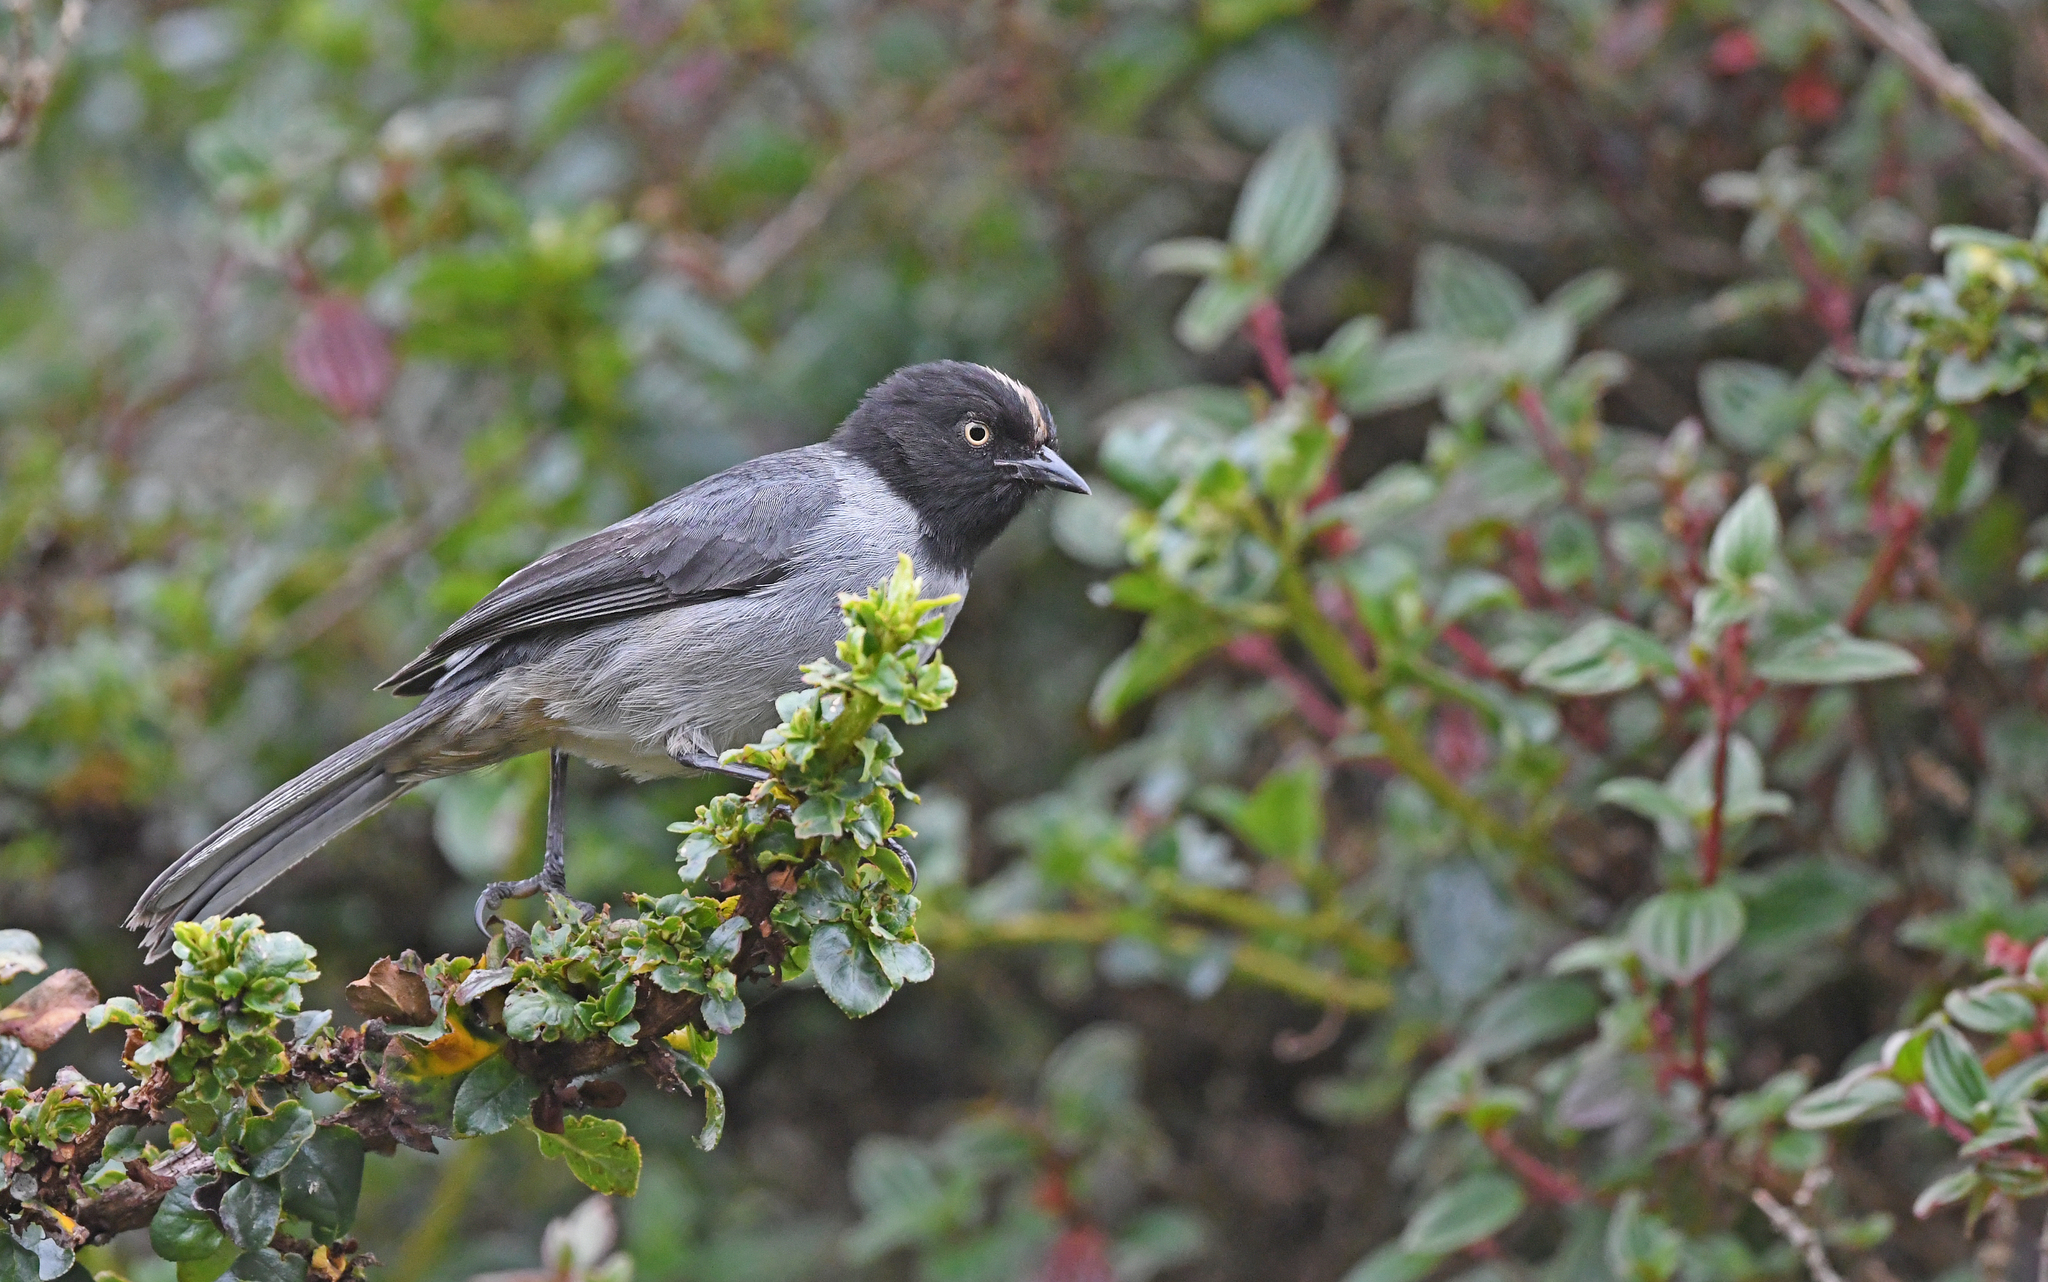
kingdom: Animalia
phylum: Chordata
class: Aves
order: Passeriformes
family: Thraupidae
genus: Pseudospingus
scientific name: Pseudospingus verticalis
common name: Black-headed hemispingus
